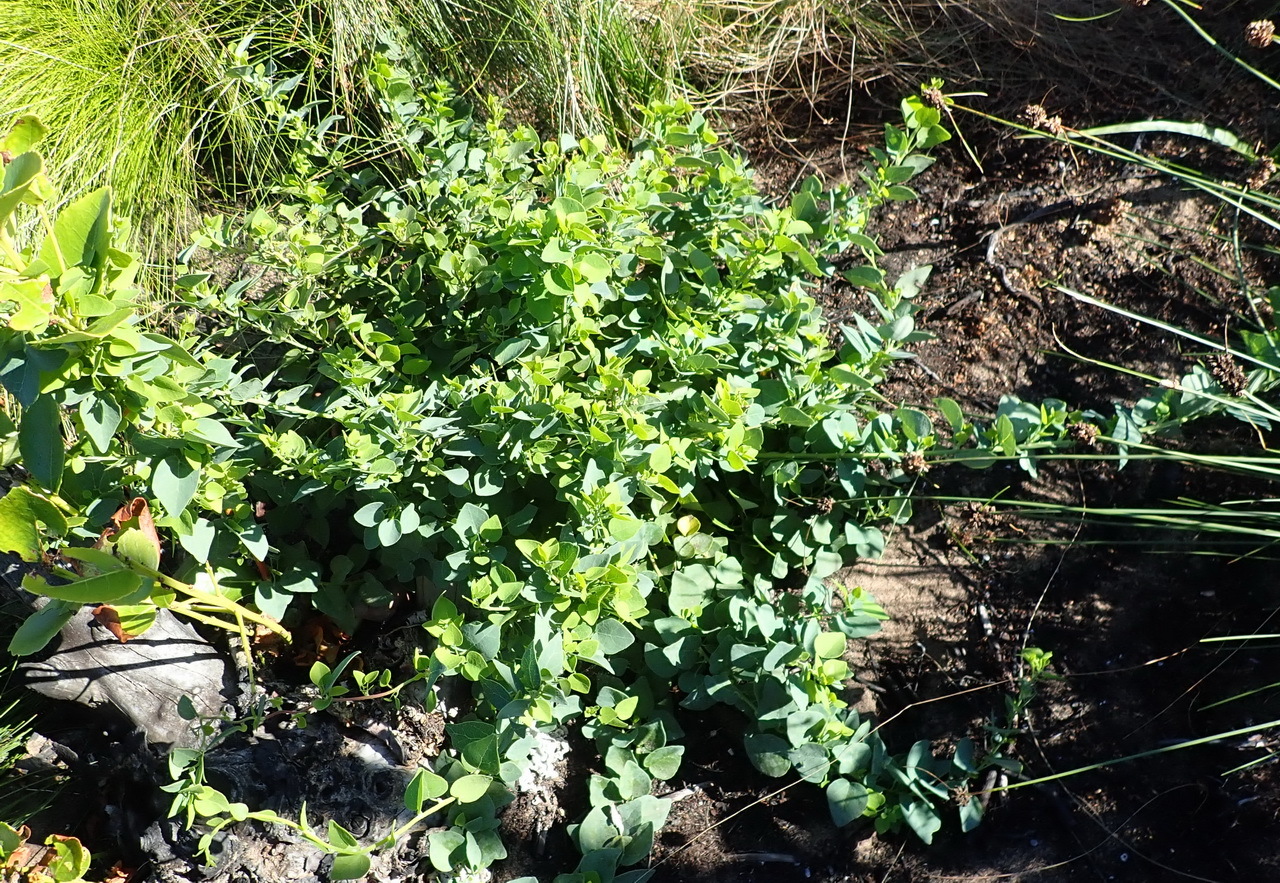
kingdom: Plantae
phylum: Tracheophyta
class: Magnoliopsida
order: Ranunculales
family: Menispermaceae
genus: Cissampelos
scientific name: Cissampelos capensis
